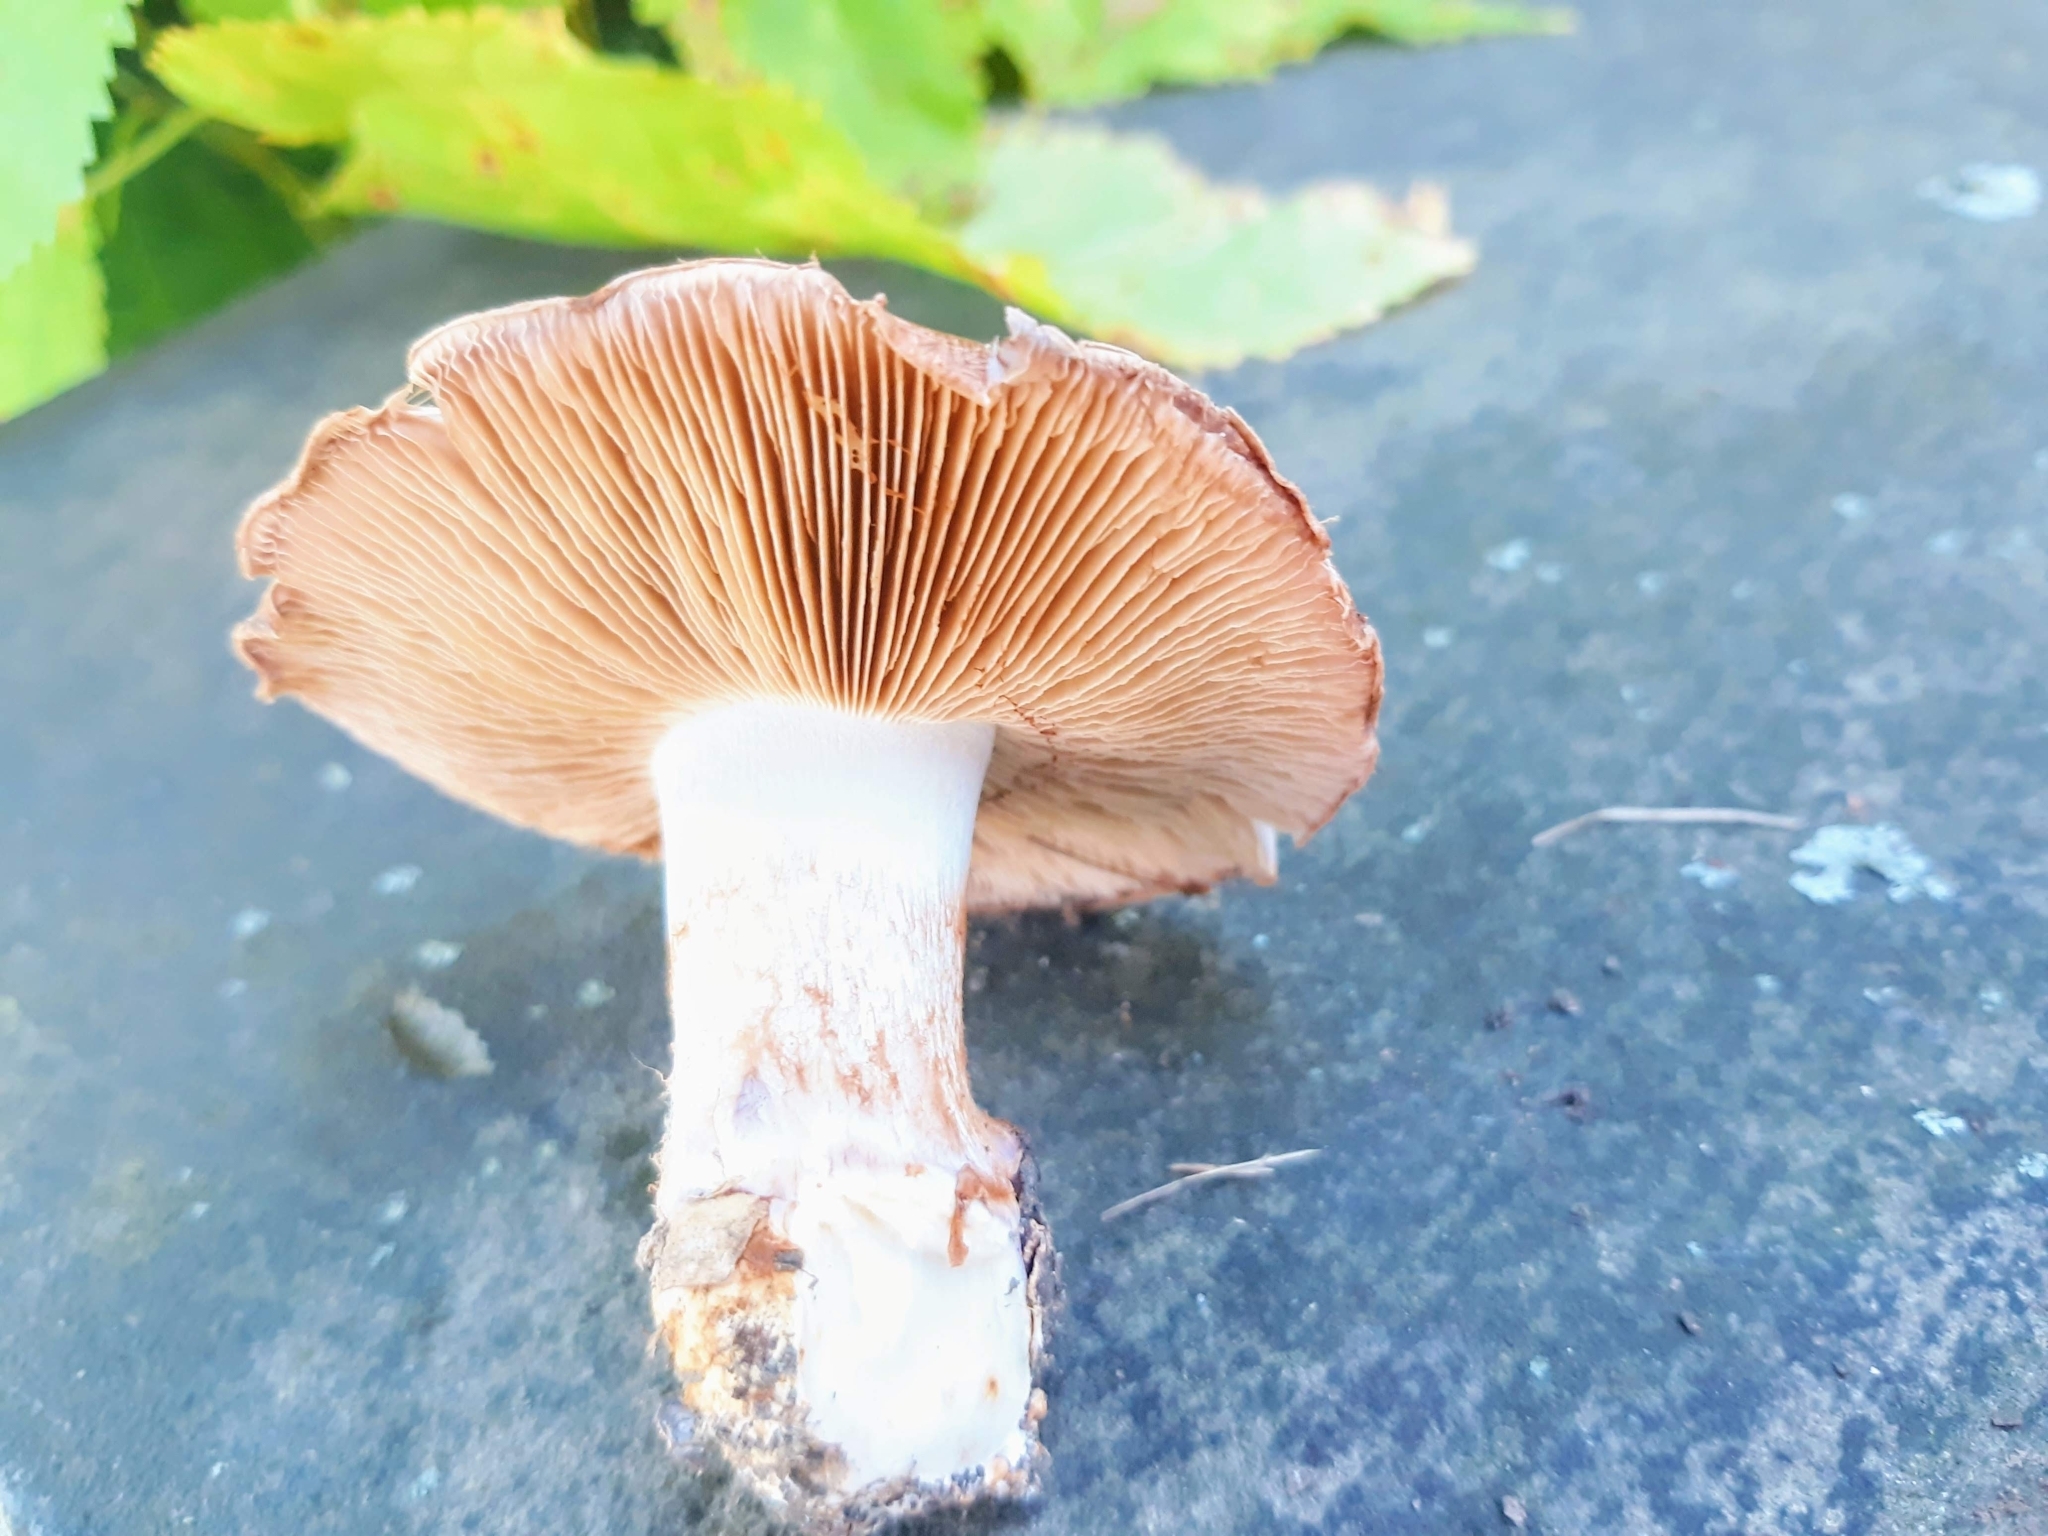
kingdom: Fungi
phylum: Basidiomycota
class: Agaricomycetes
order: Agaricales
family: Hymenogastraceae
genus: Hebeloma
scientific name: Hebeloma crustuliniforme
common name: Poison pie
